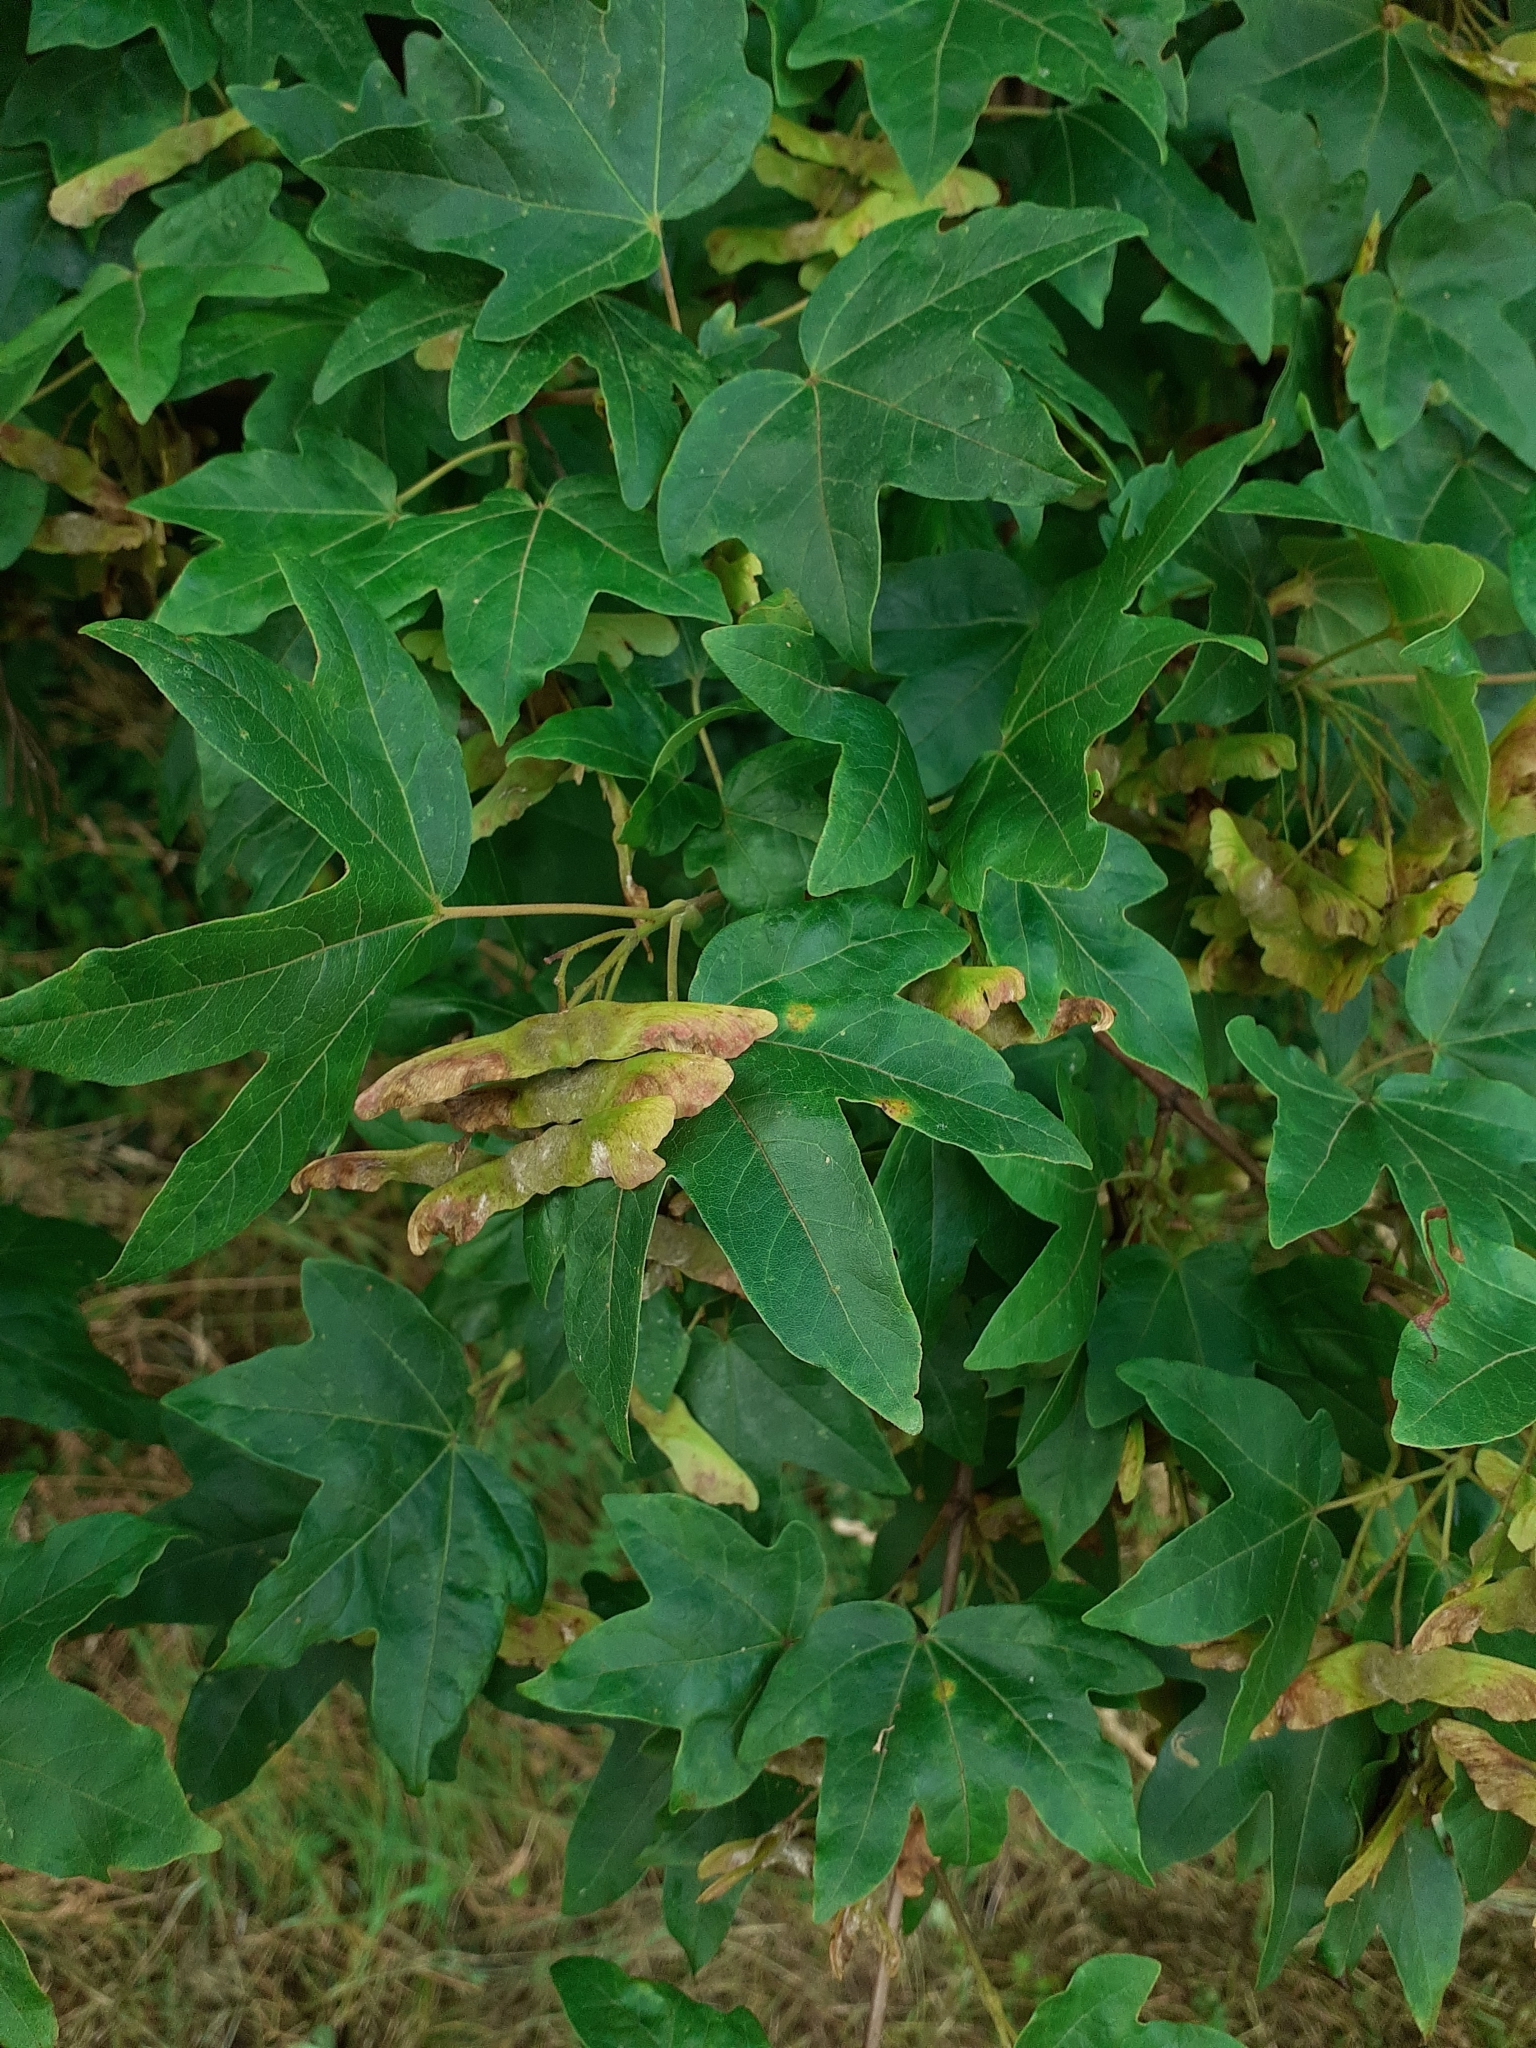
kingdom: Plantae
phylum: Tracheophyta
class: Magnoliopsida
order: Sapindales
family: Sapindaceae
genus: Acer
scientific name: Acer campestre
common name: Field maple
